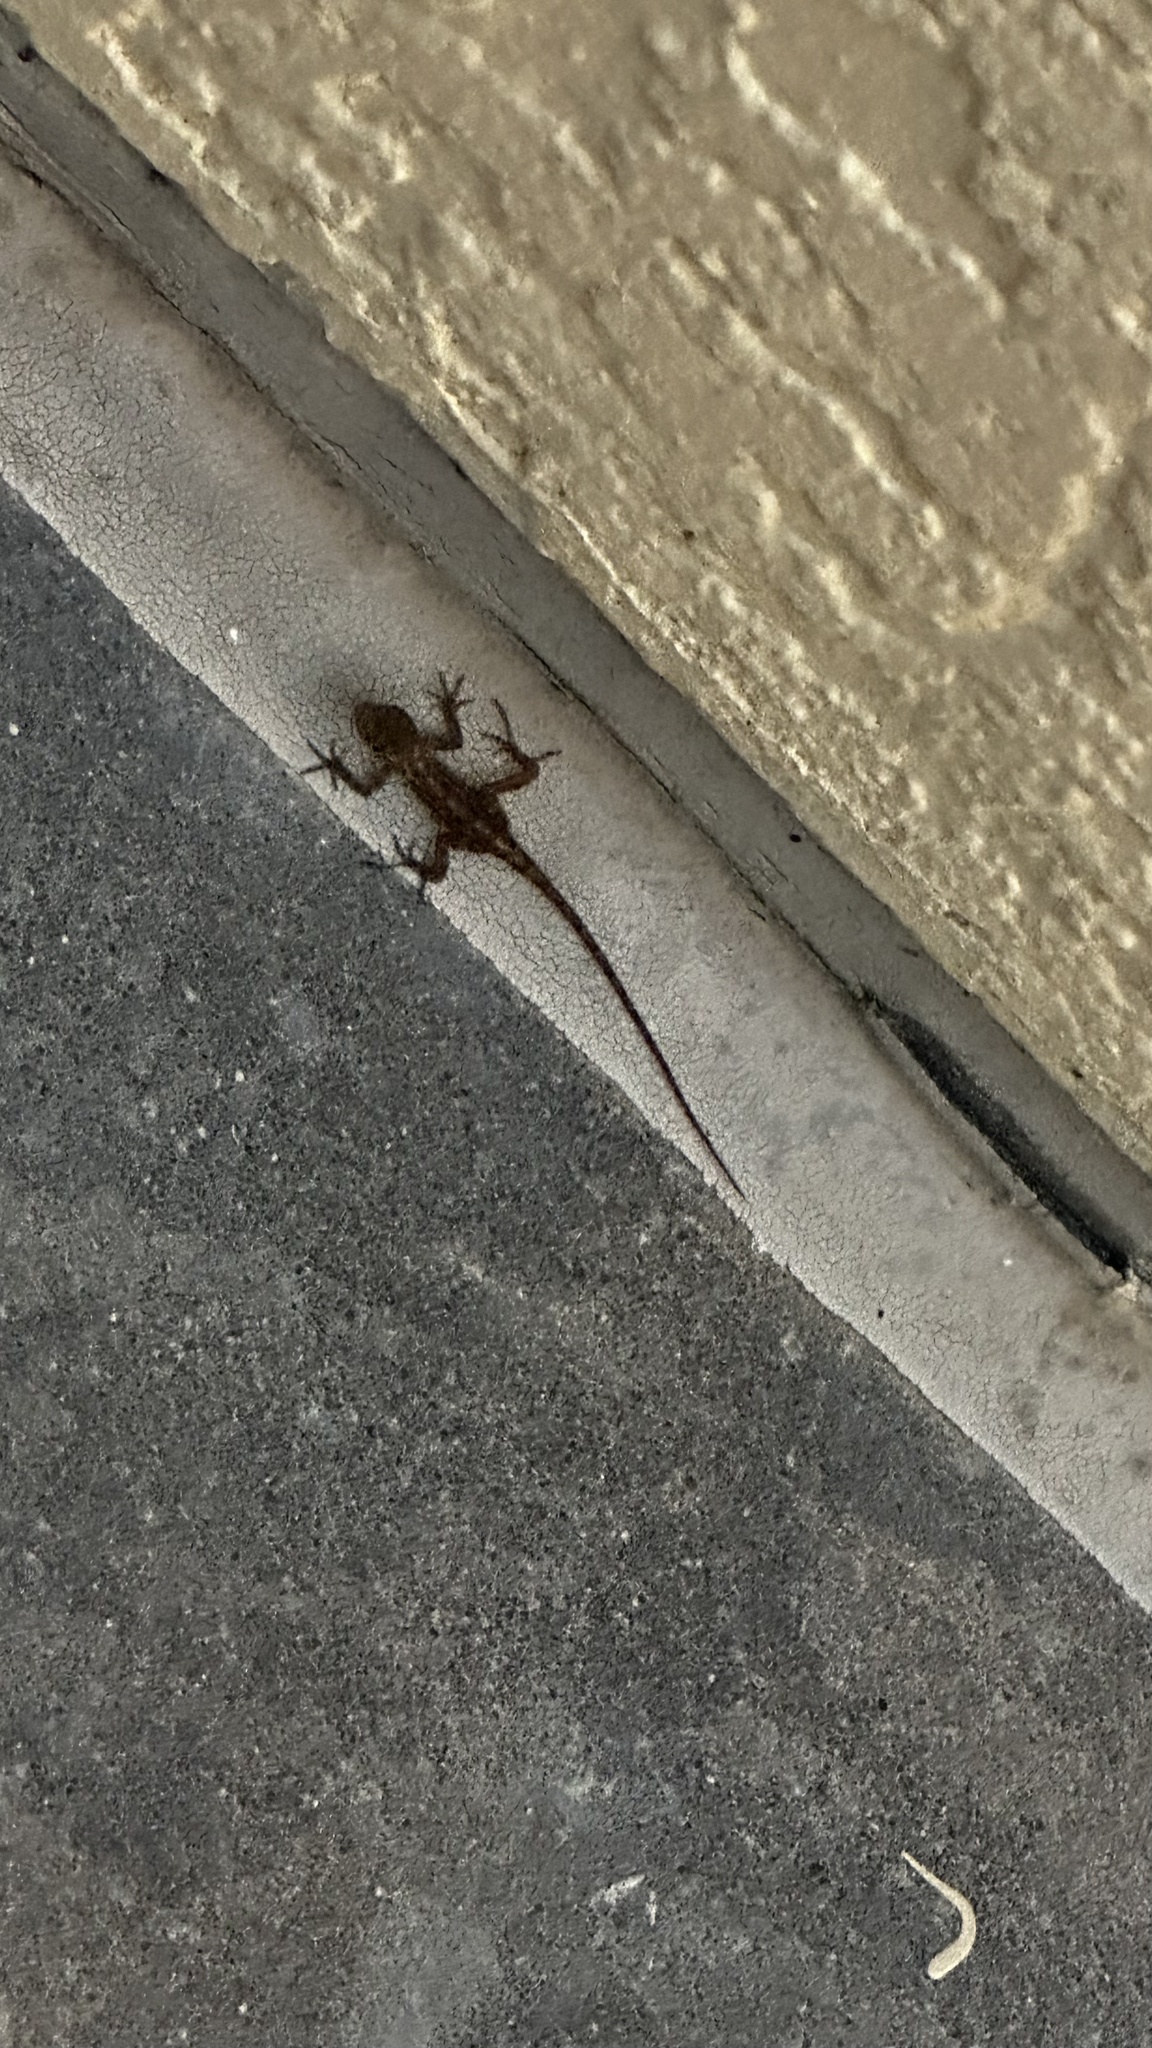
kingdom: Animalia
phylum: Chordata
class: Squamata
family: Dactyloidae
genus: Anolis
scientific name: Anolis sagrei
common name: Brown anole
